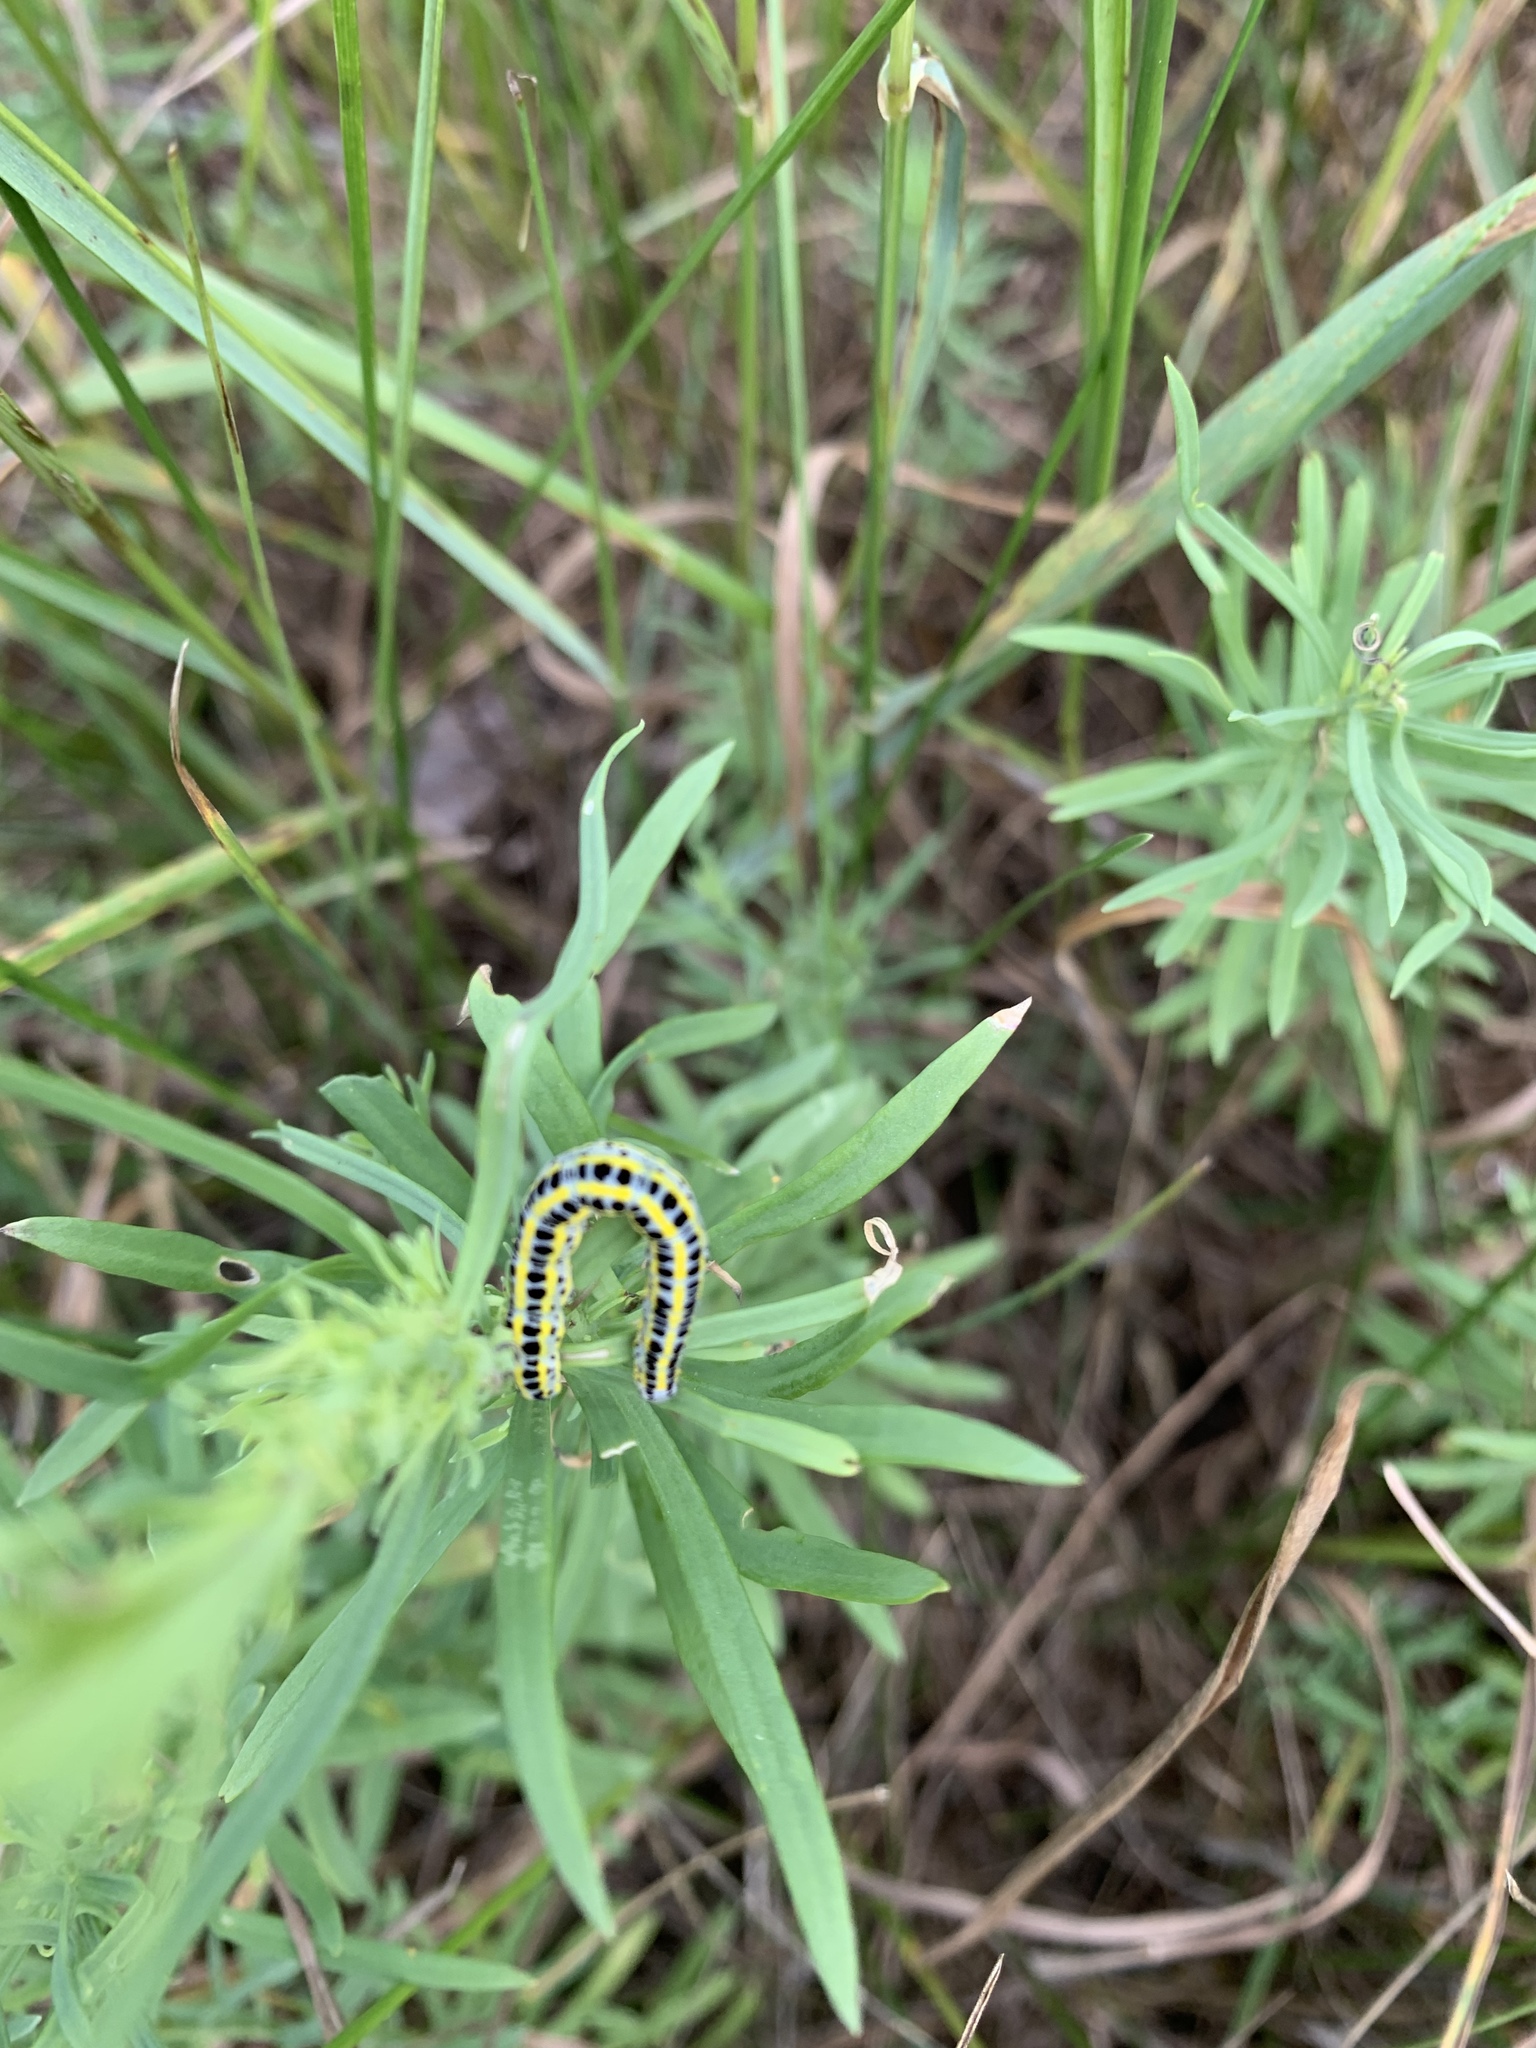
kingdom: Animalia
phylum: Arthropoda
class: Insecta
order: Lepidoptera
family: Noctuidae
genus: Calophasia
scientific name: Calophasia lunula
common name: Toadflax brocade
